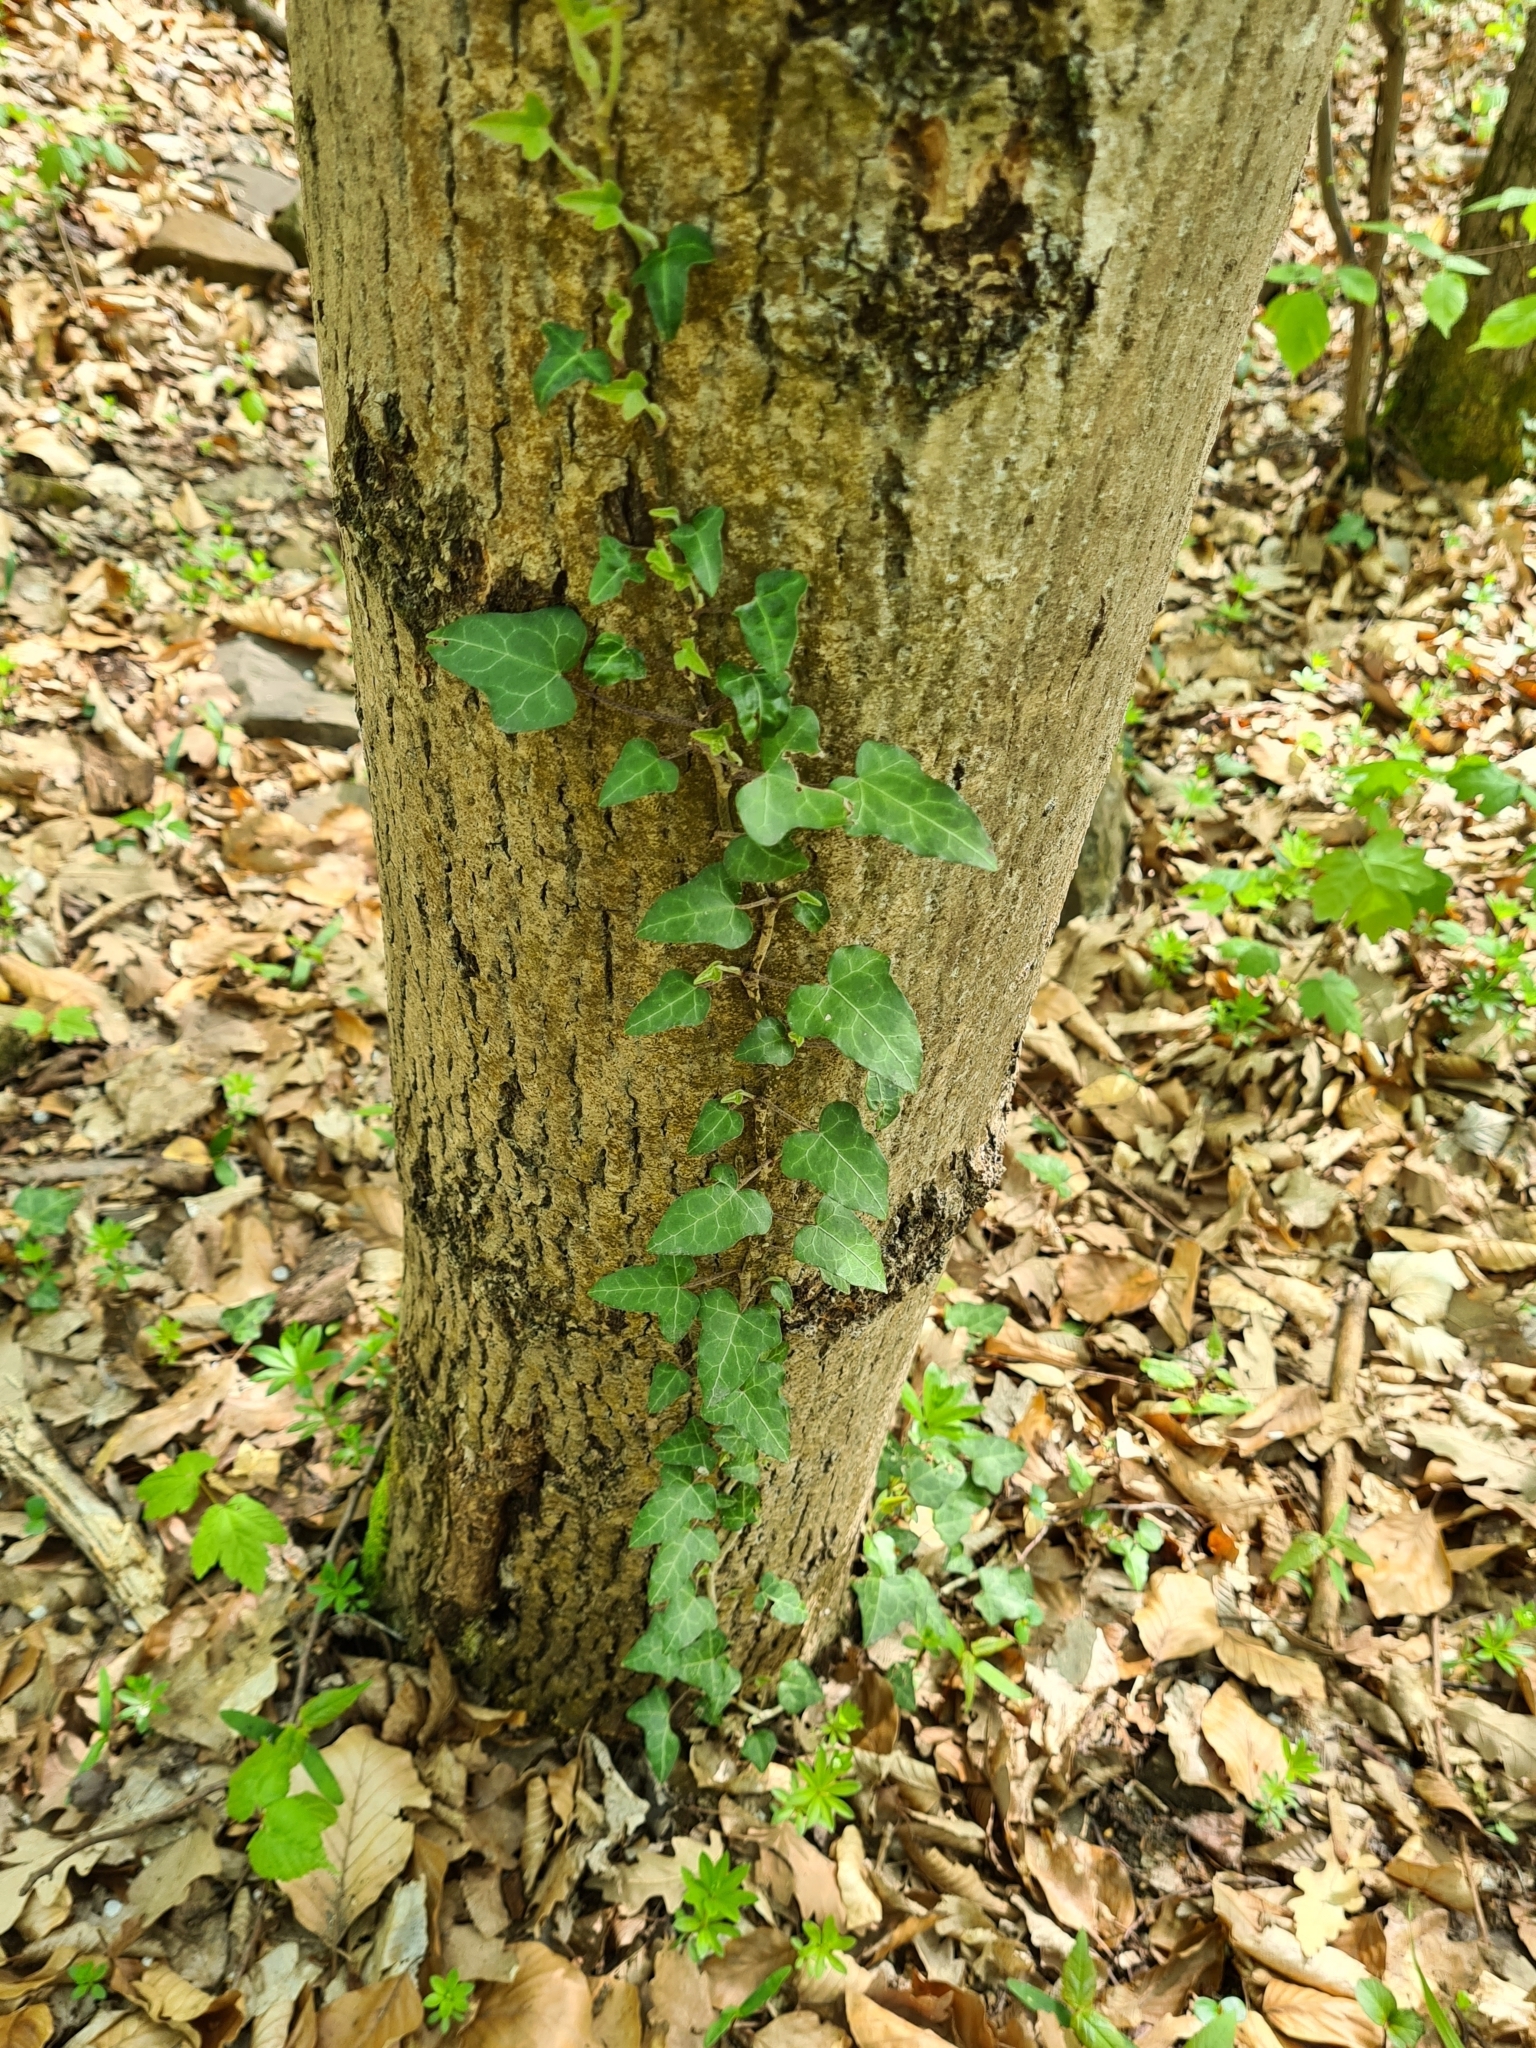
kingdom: Plantae
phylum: Tracheophyta
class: Magnoliopsida
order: Apiales
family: Araliaceae
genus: Hedera
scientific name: Hedera helix
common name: Ivy
